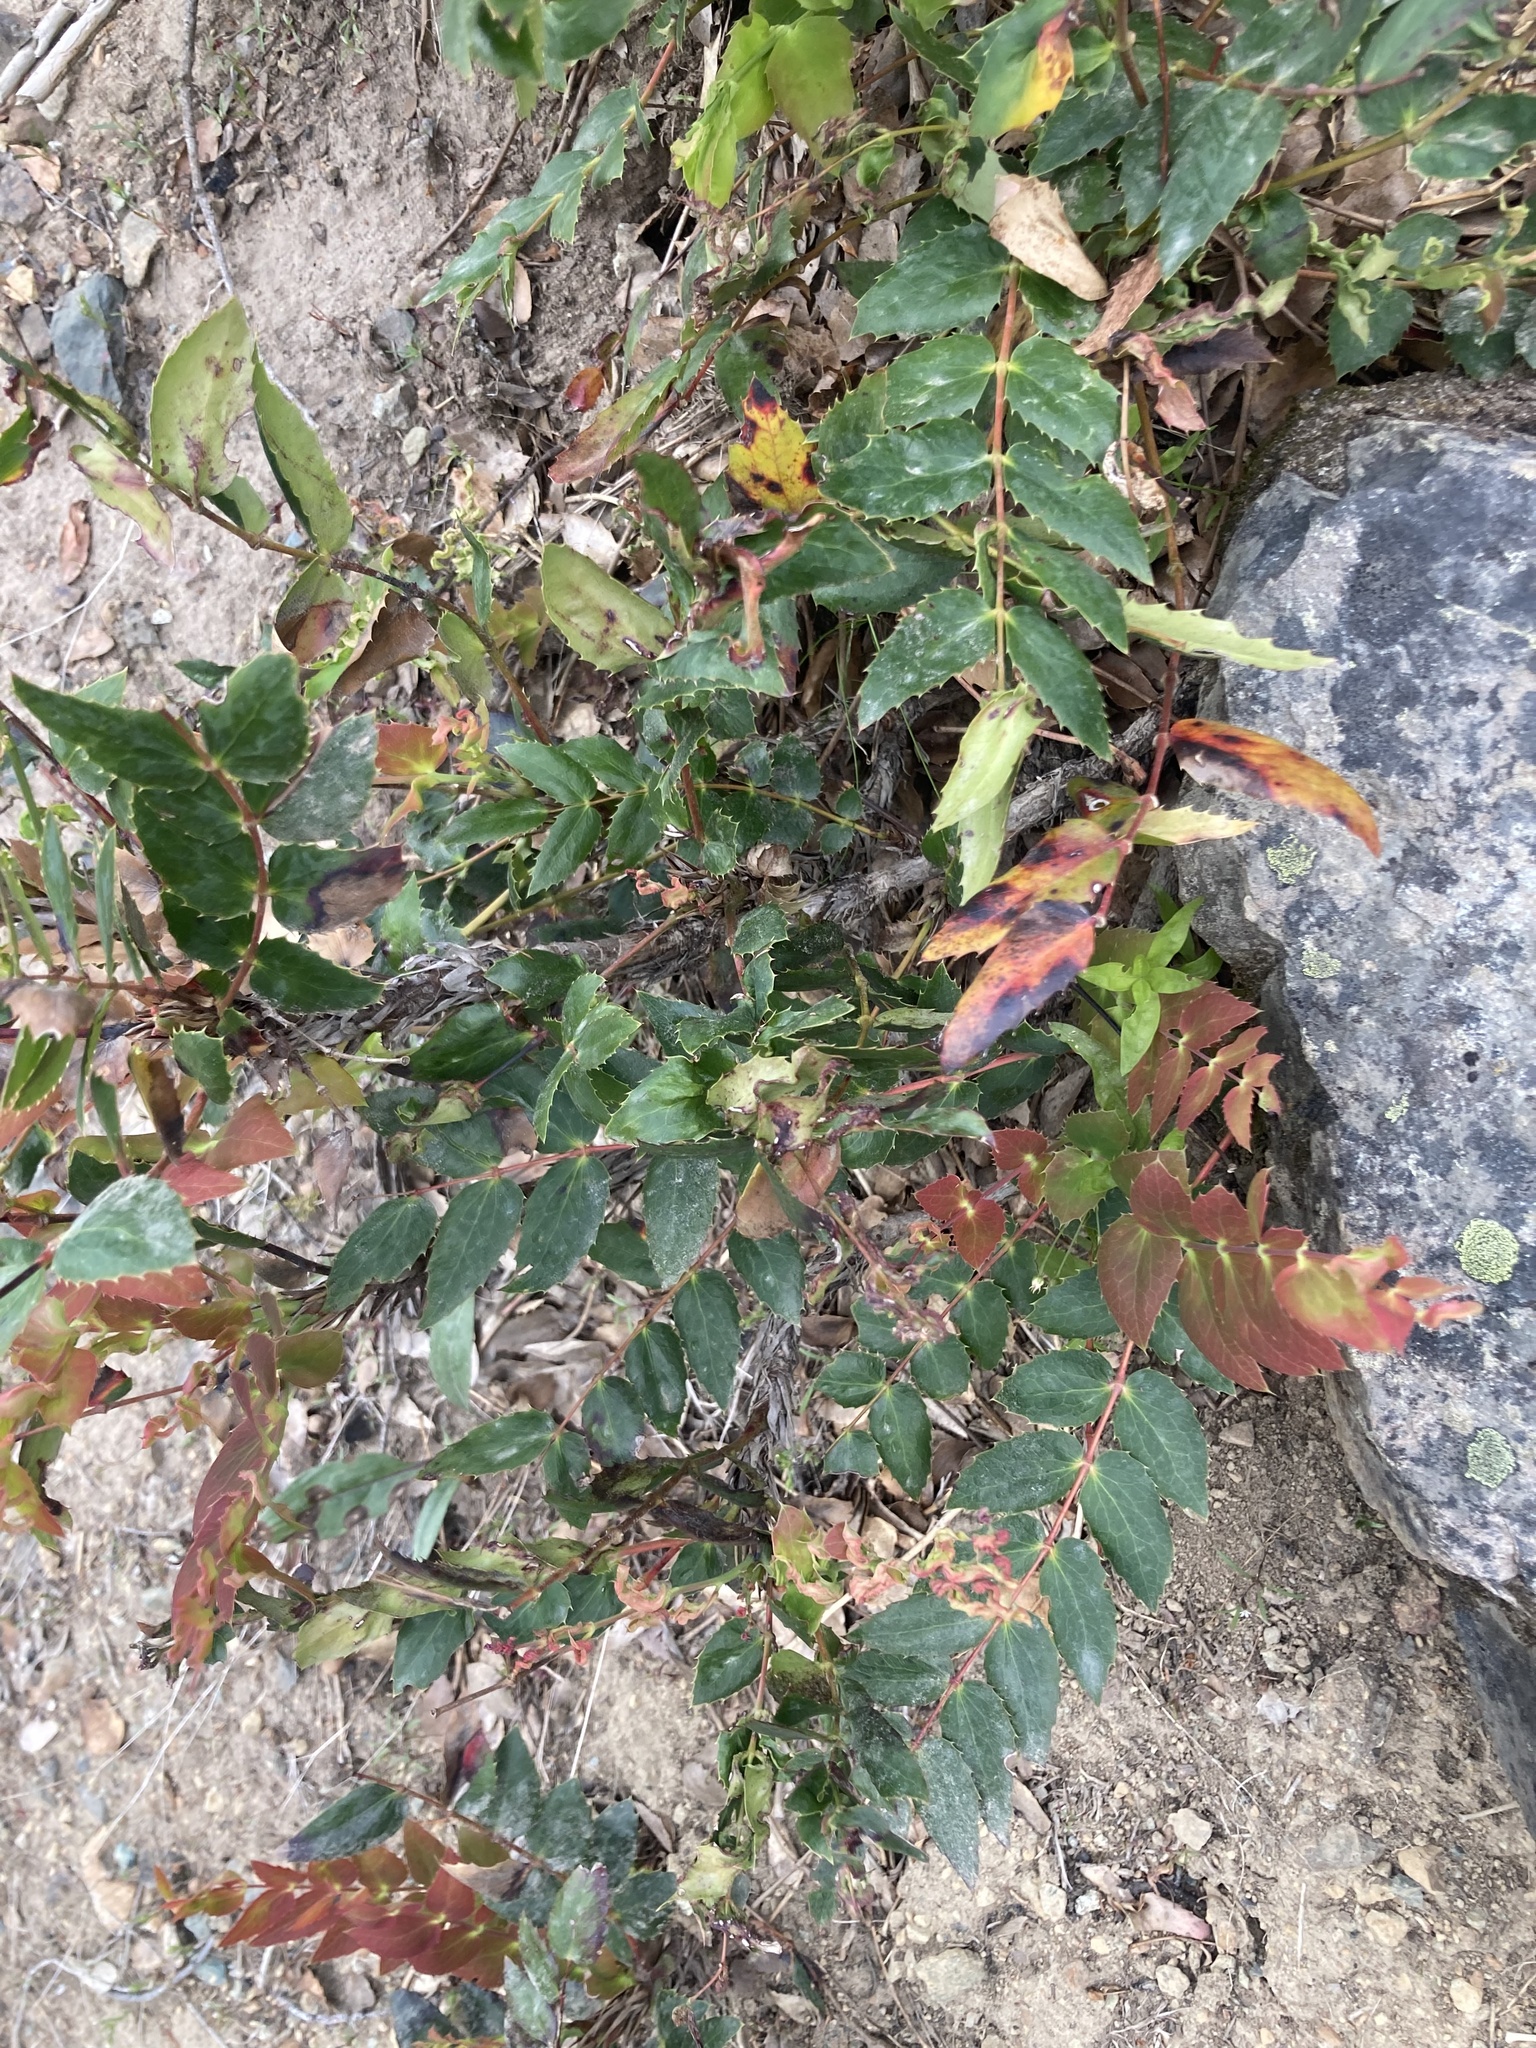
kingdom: Plantae
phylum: Tracheophyta
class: Magnoliopsida
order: Ranunculales
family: Berberidaceae
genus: Mahonia
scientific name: Mahonia nervosa
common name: Cascade oregon-grape
